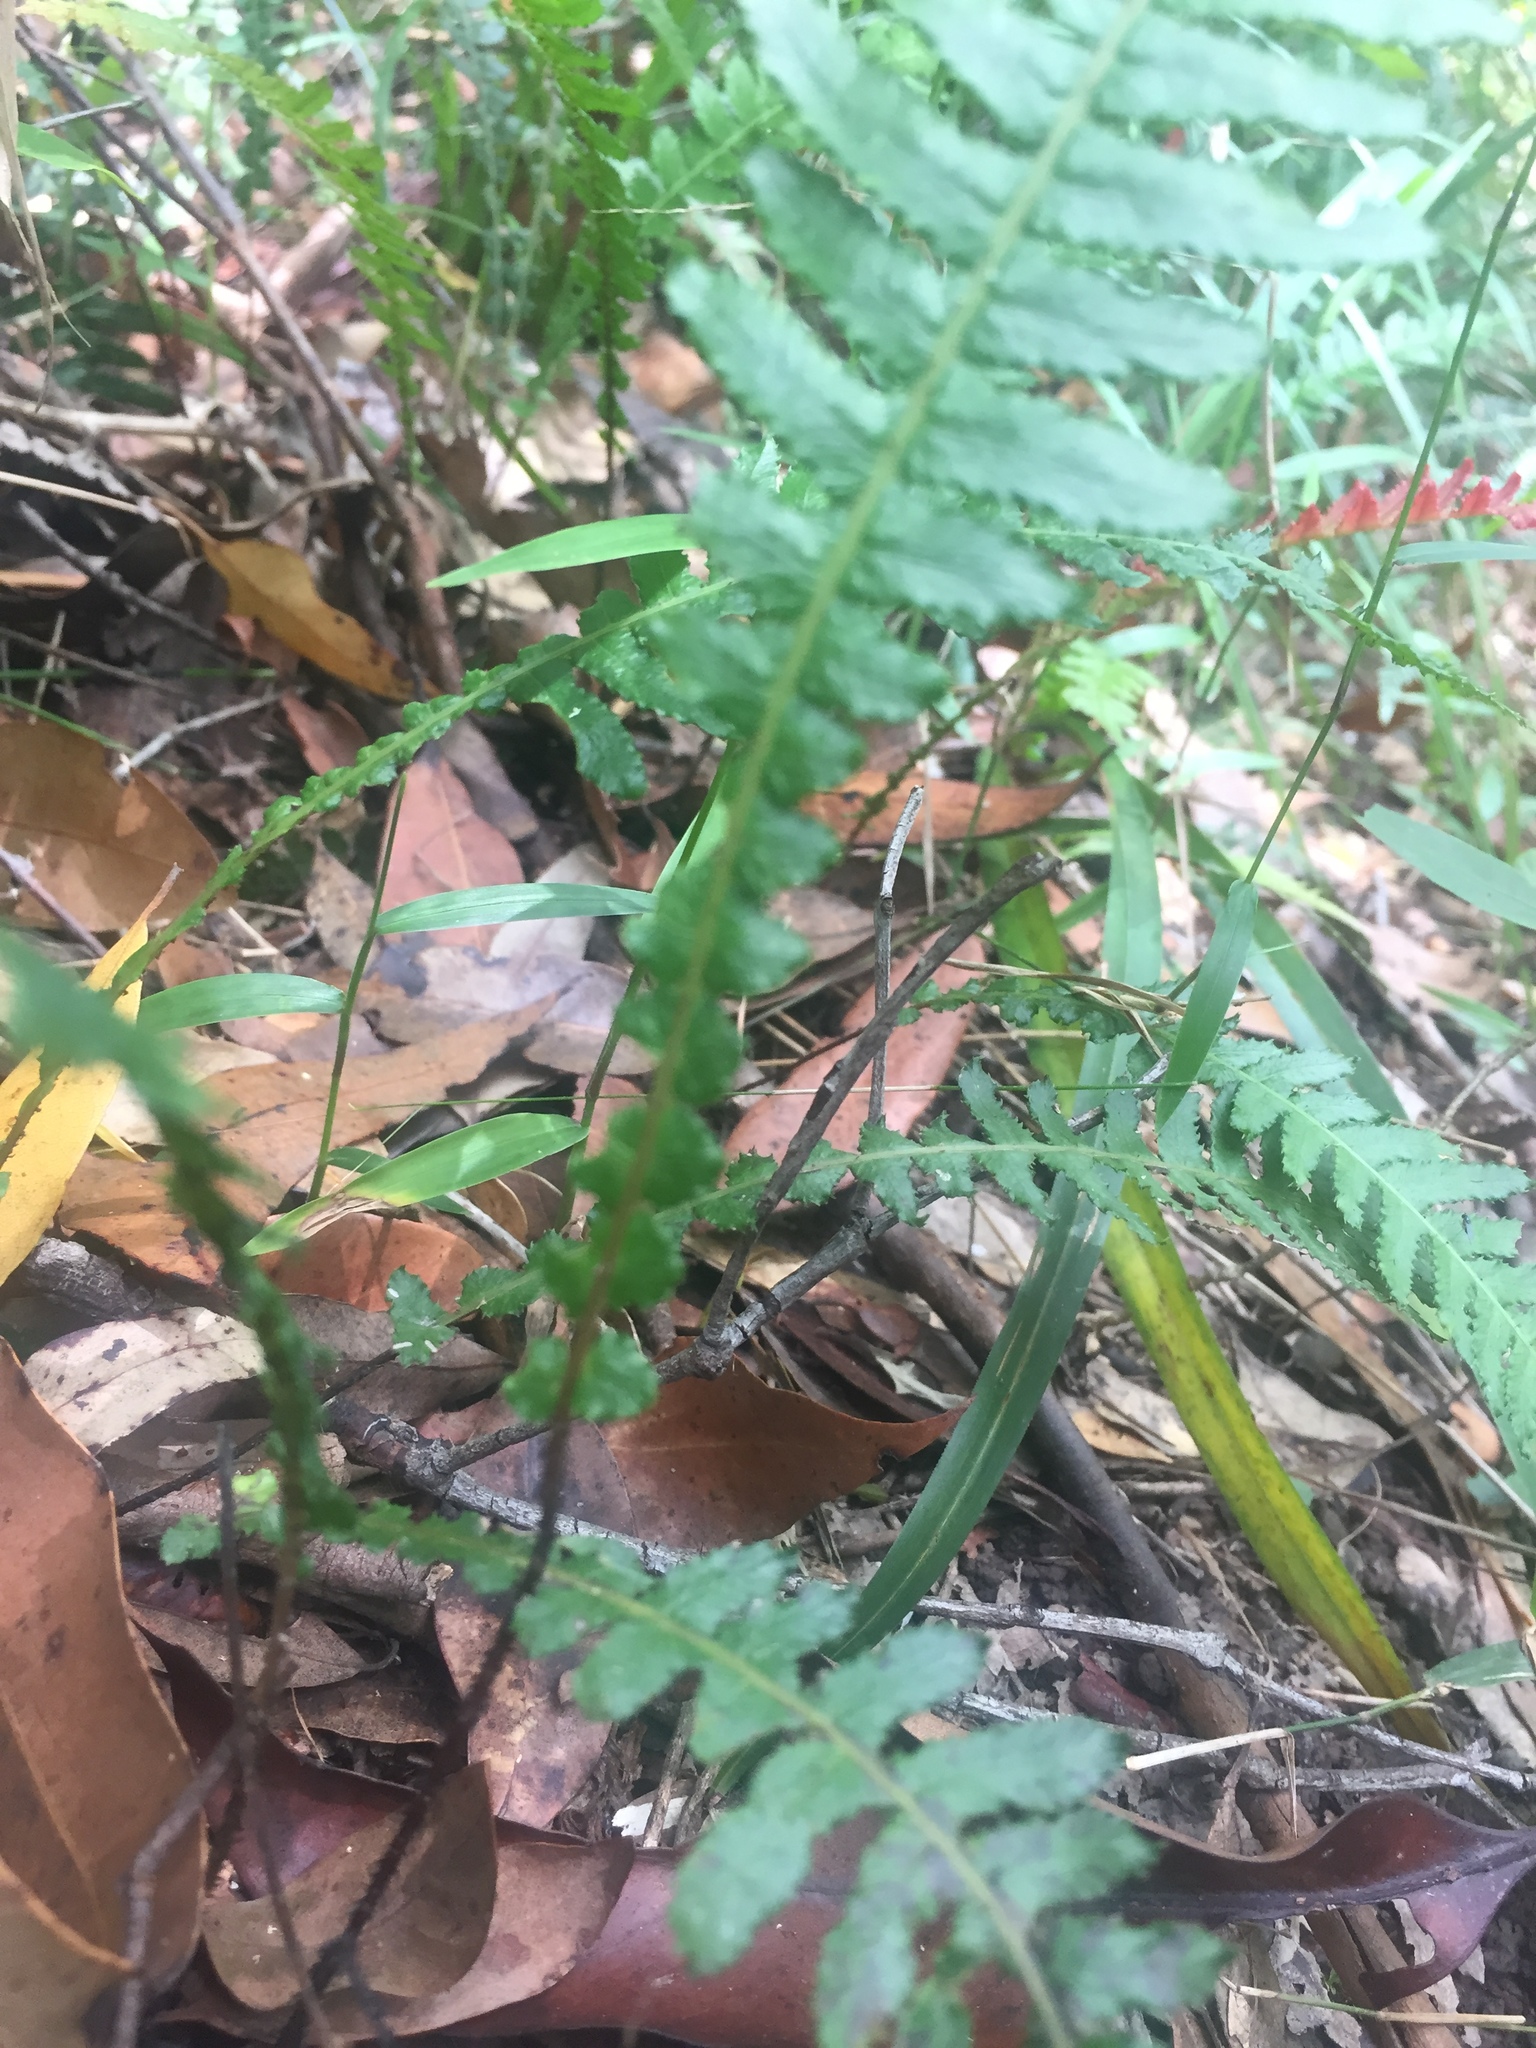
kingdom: Plantae
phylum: Tracheophyta
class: Polypodiopsida
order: Polypodiales
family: Blechnaceae
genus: Doodia
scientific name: Doodia aspera
